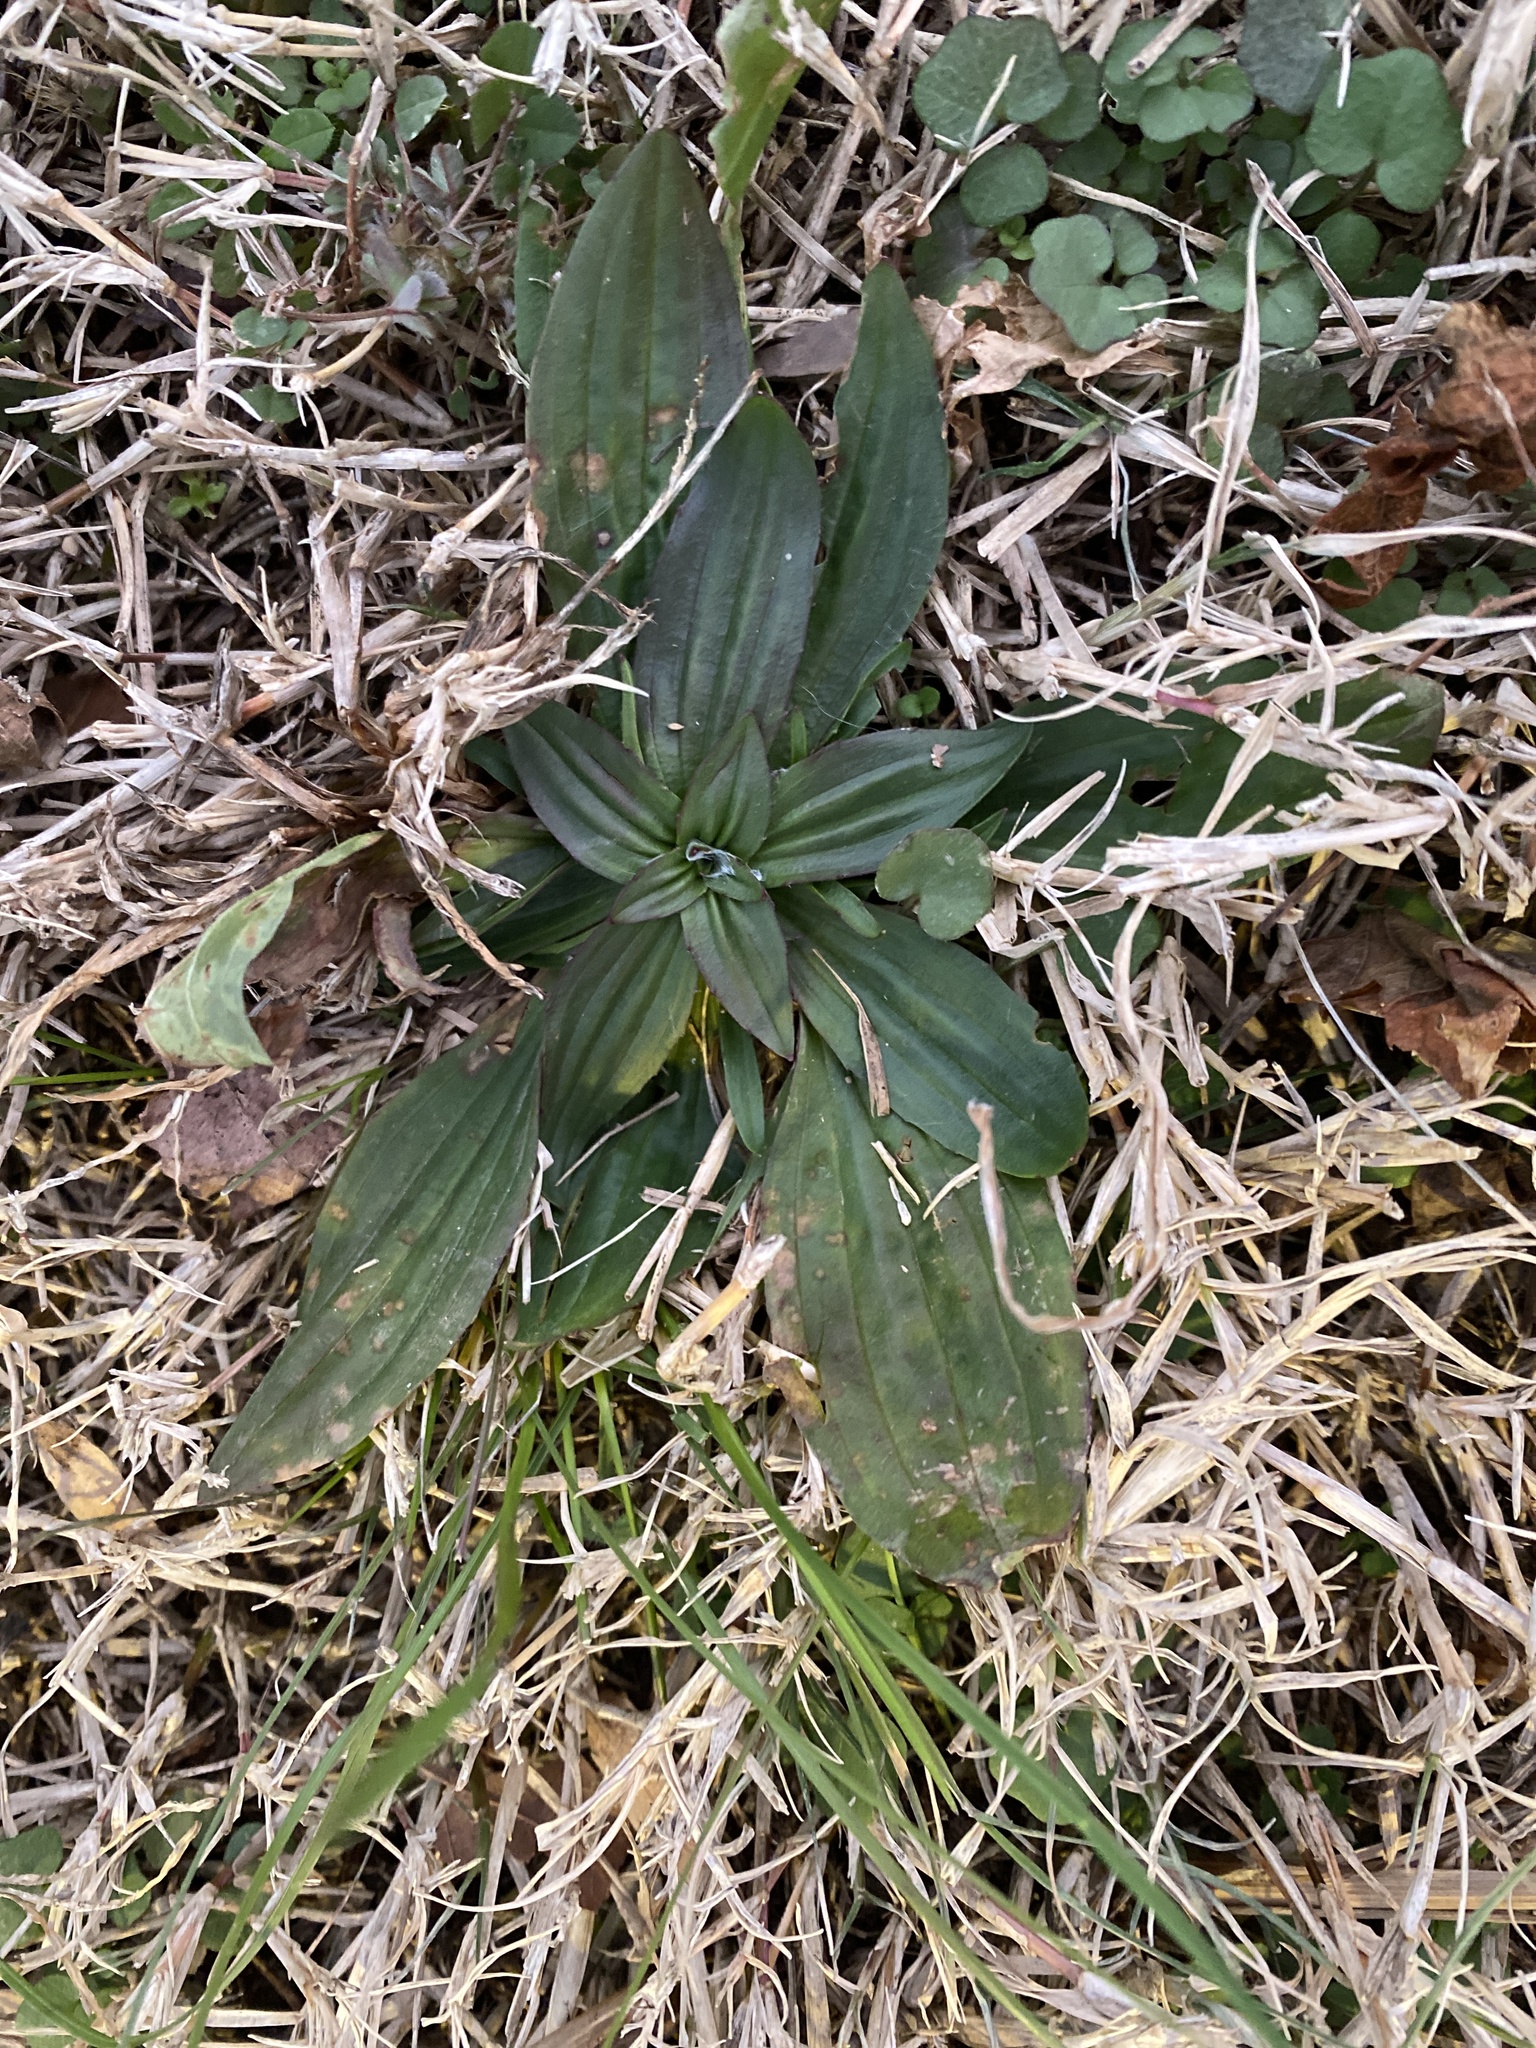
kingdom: Plantae
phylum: Tracheophyta
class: Magnoliopsida
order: Lamiales
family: Plantaginaceae
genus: Plantago
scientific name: Plantago lanceolata
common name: Ribwort plantain
